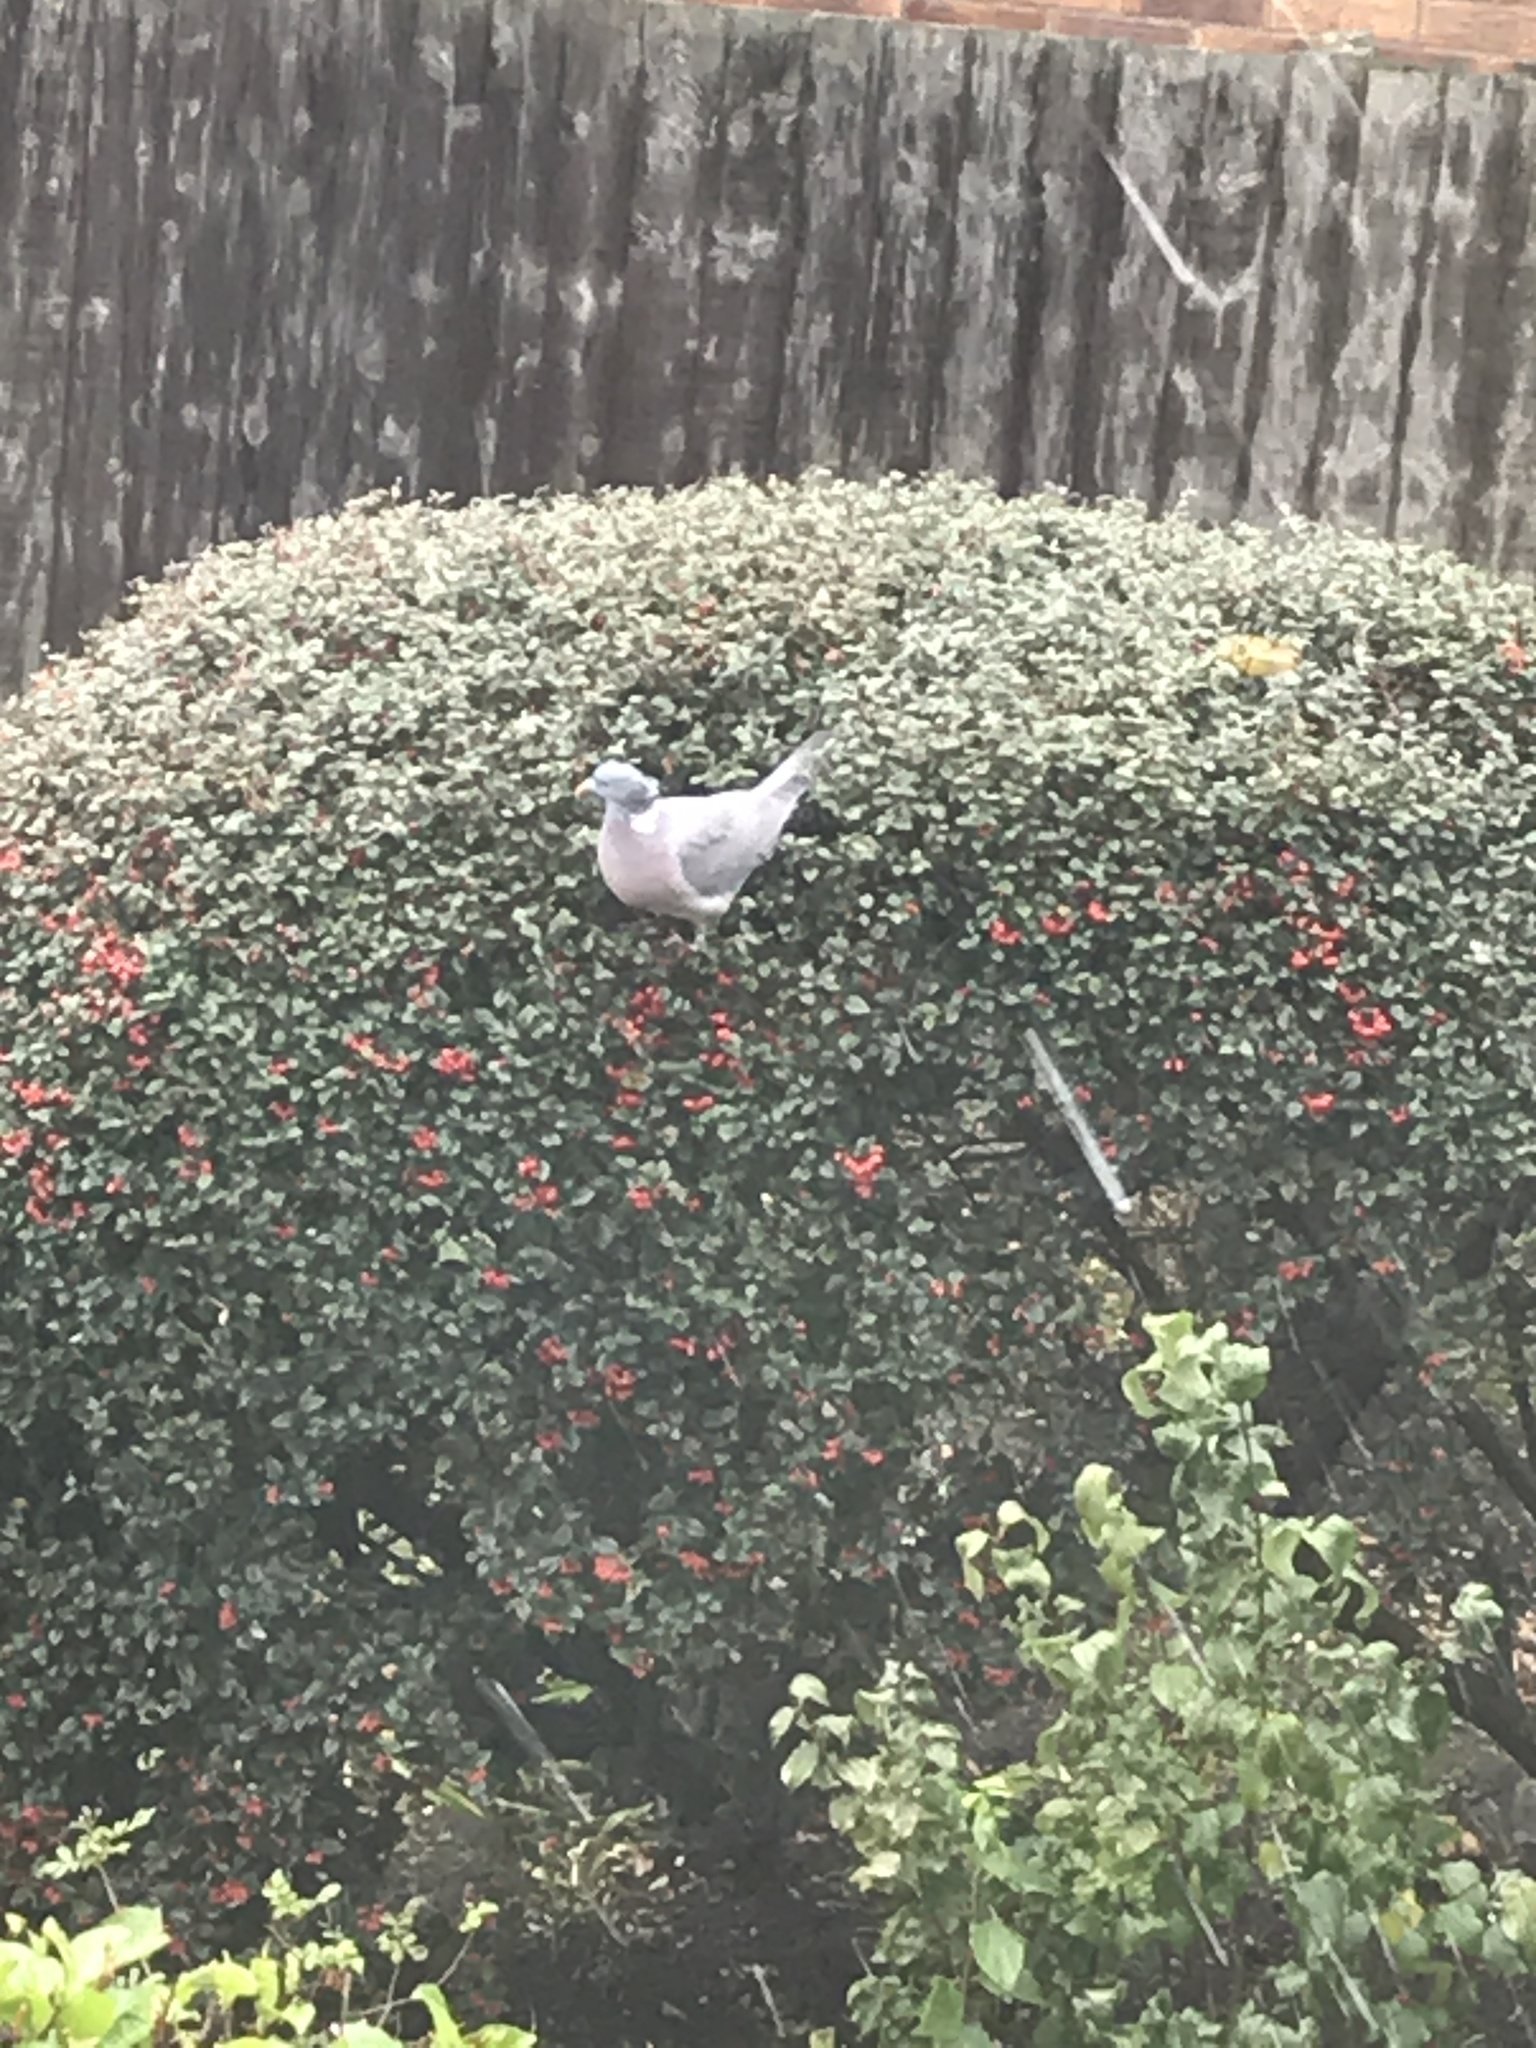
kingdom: Animalia
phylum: Chordata
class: Aves
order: Columbiformes
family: Columbidae
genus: Columba
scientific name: Columba palumbus
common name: Common wood pigeon
